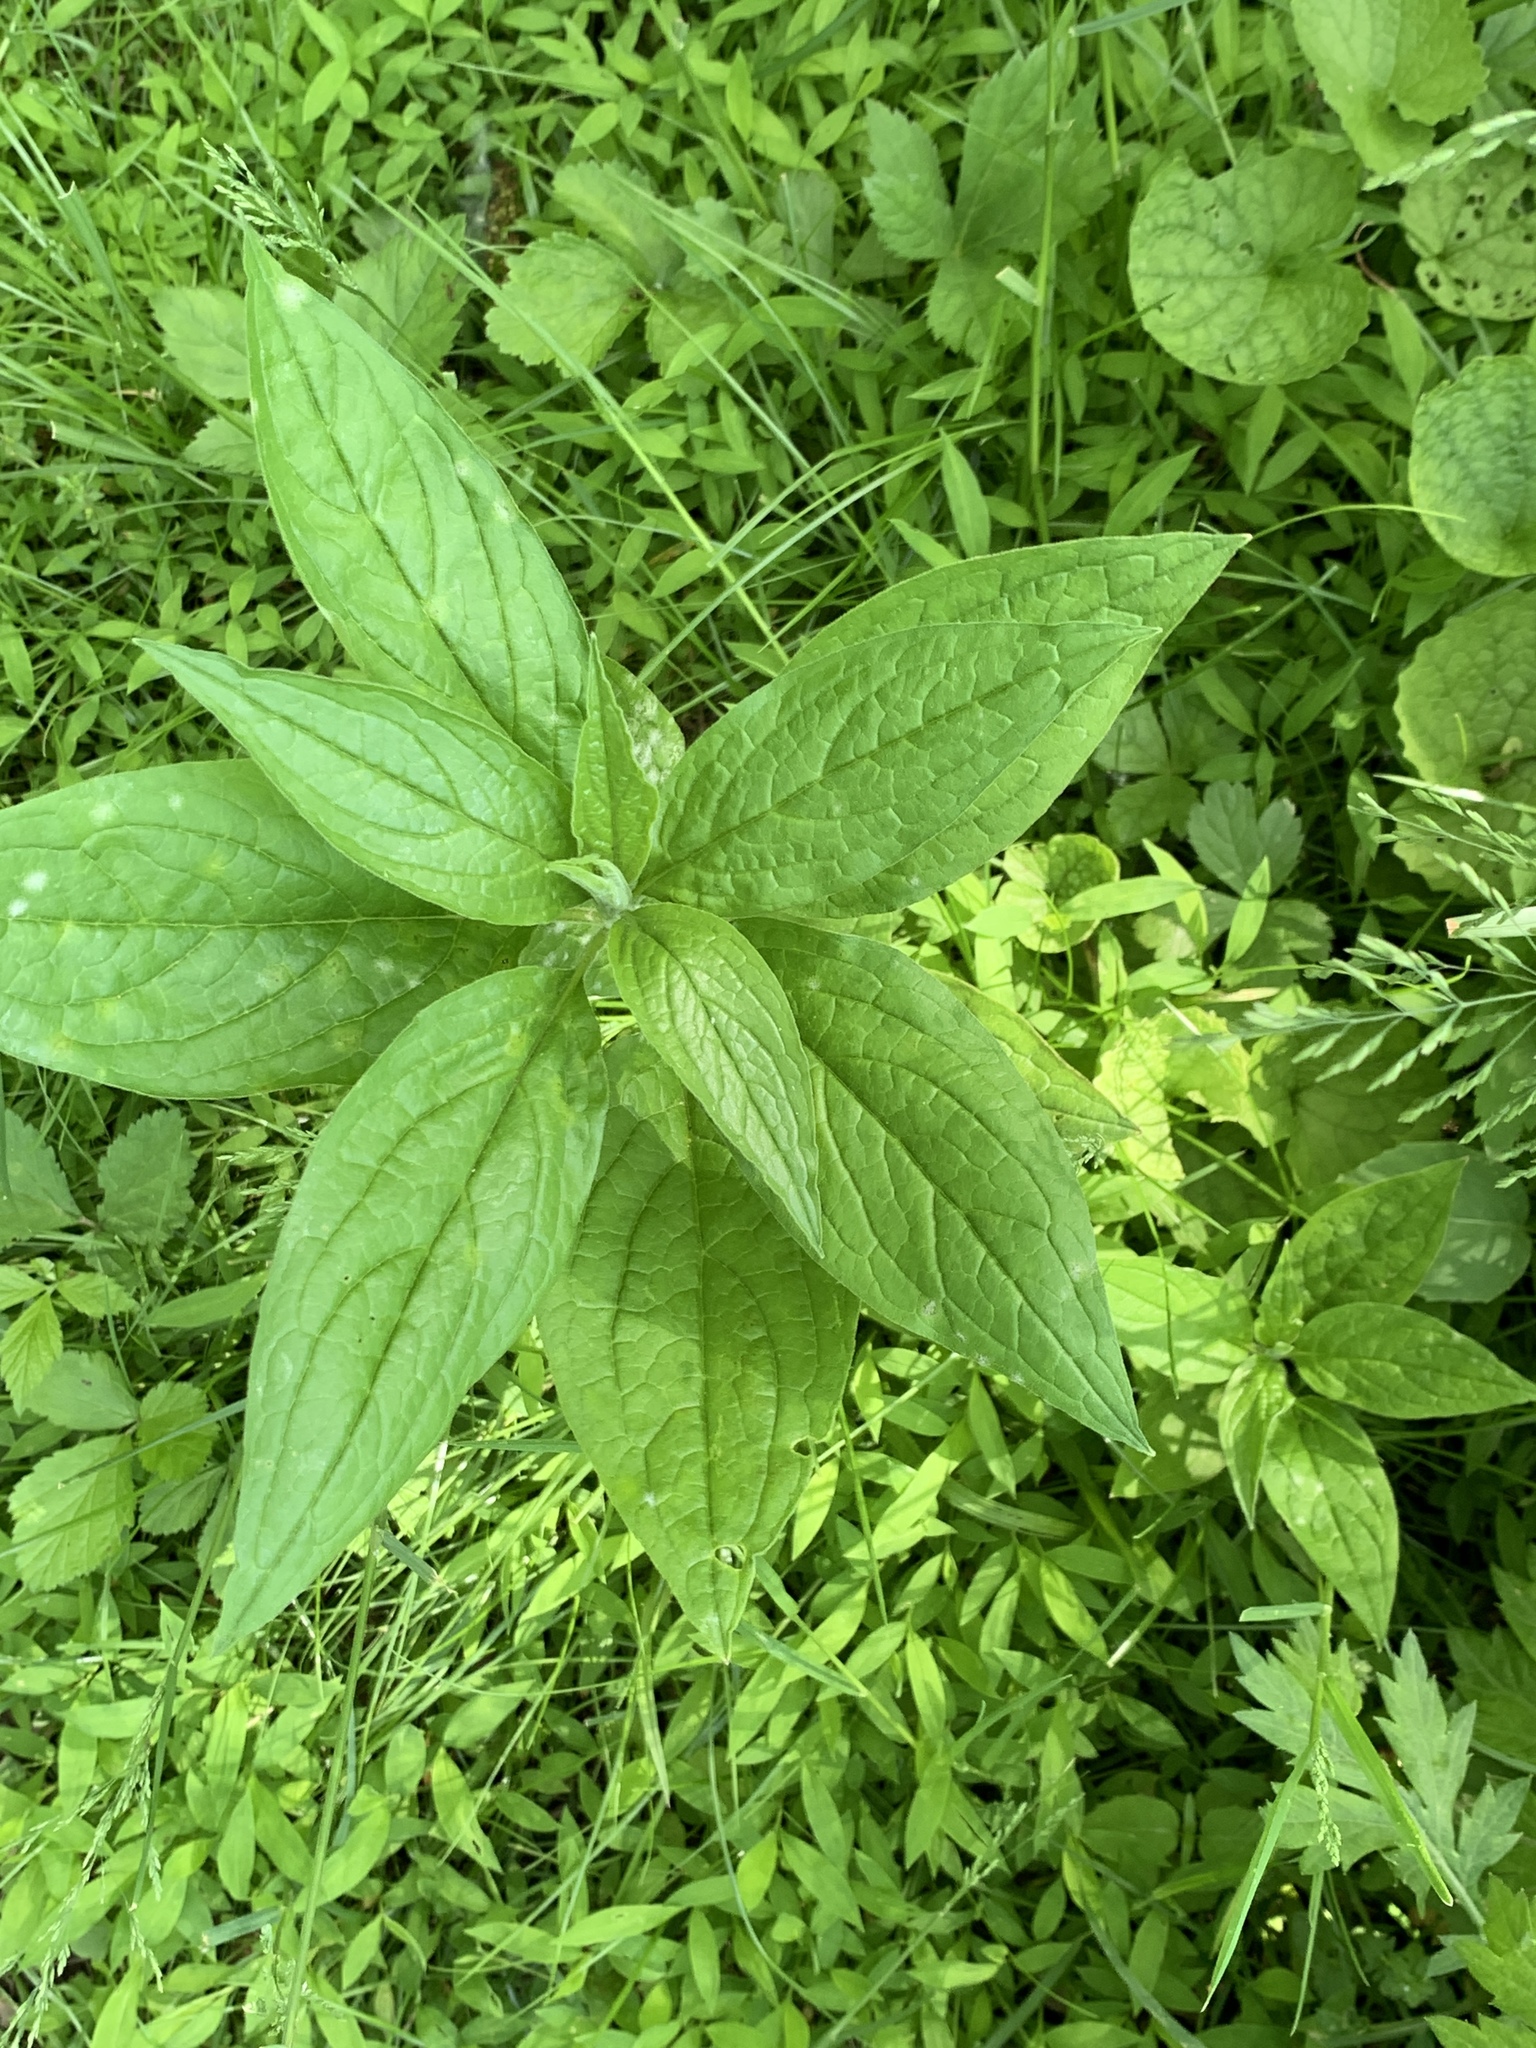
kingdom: Plantae
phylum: Tracheophyta
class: Magnoliopsida
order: Boraginales
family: Boraginaceae
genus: Hackelia
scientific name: Hackelia virginiana
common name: Beggar's-lice
